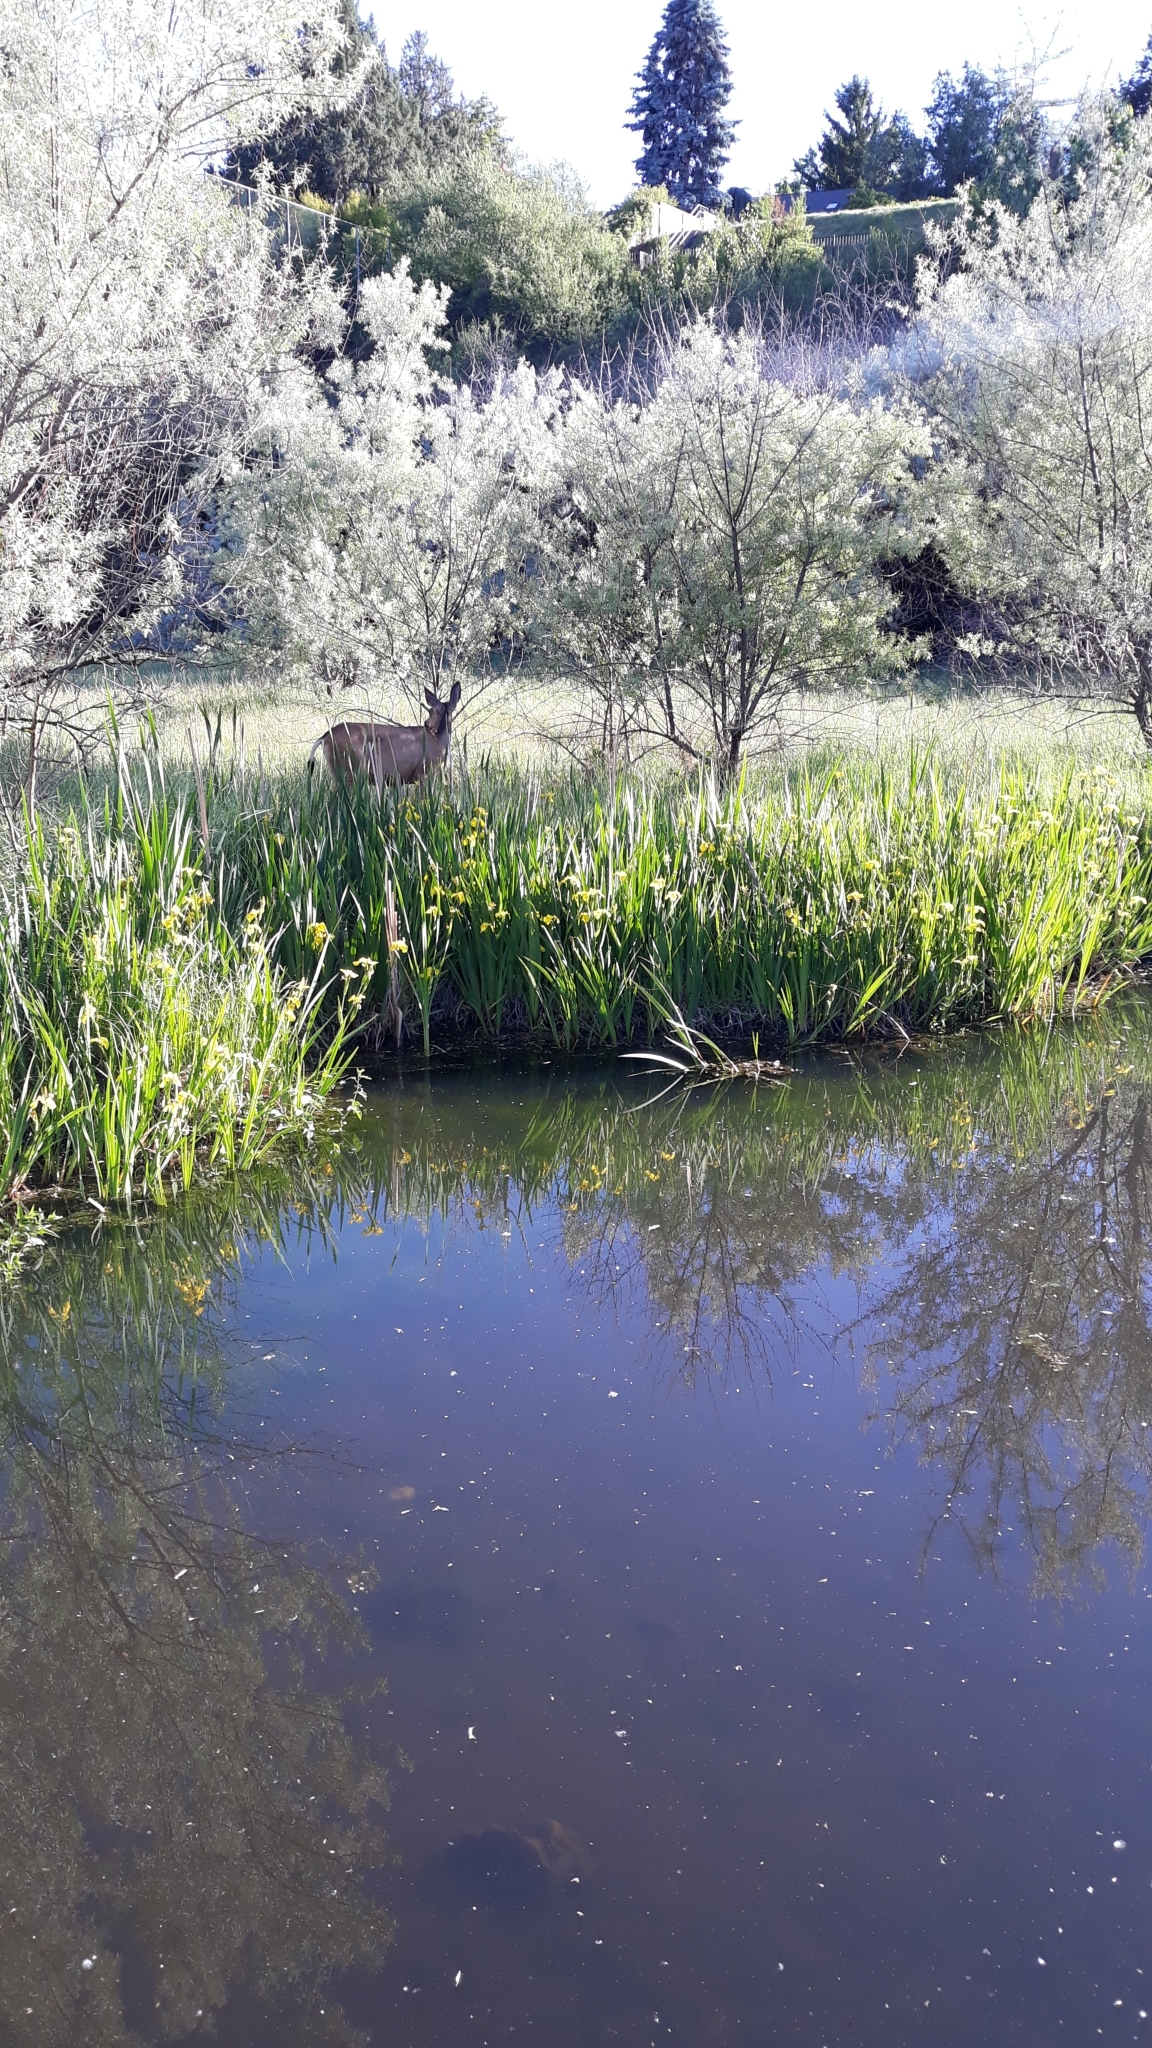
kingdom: Animalia
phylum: Chordata
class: Mammalia
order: Artiodactyla
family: Cervidae
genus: Odocoileus
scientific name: Odocoileus hemionus
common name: Mule deer
